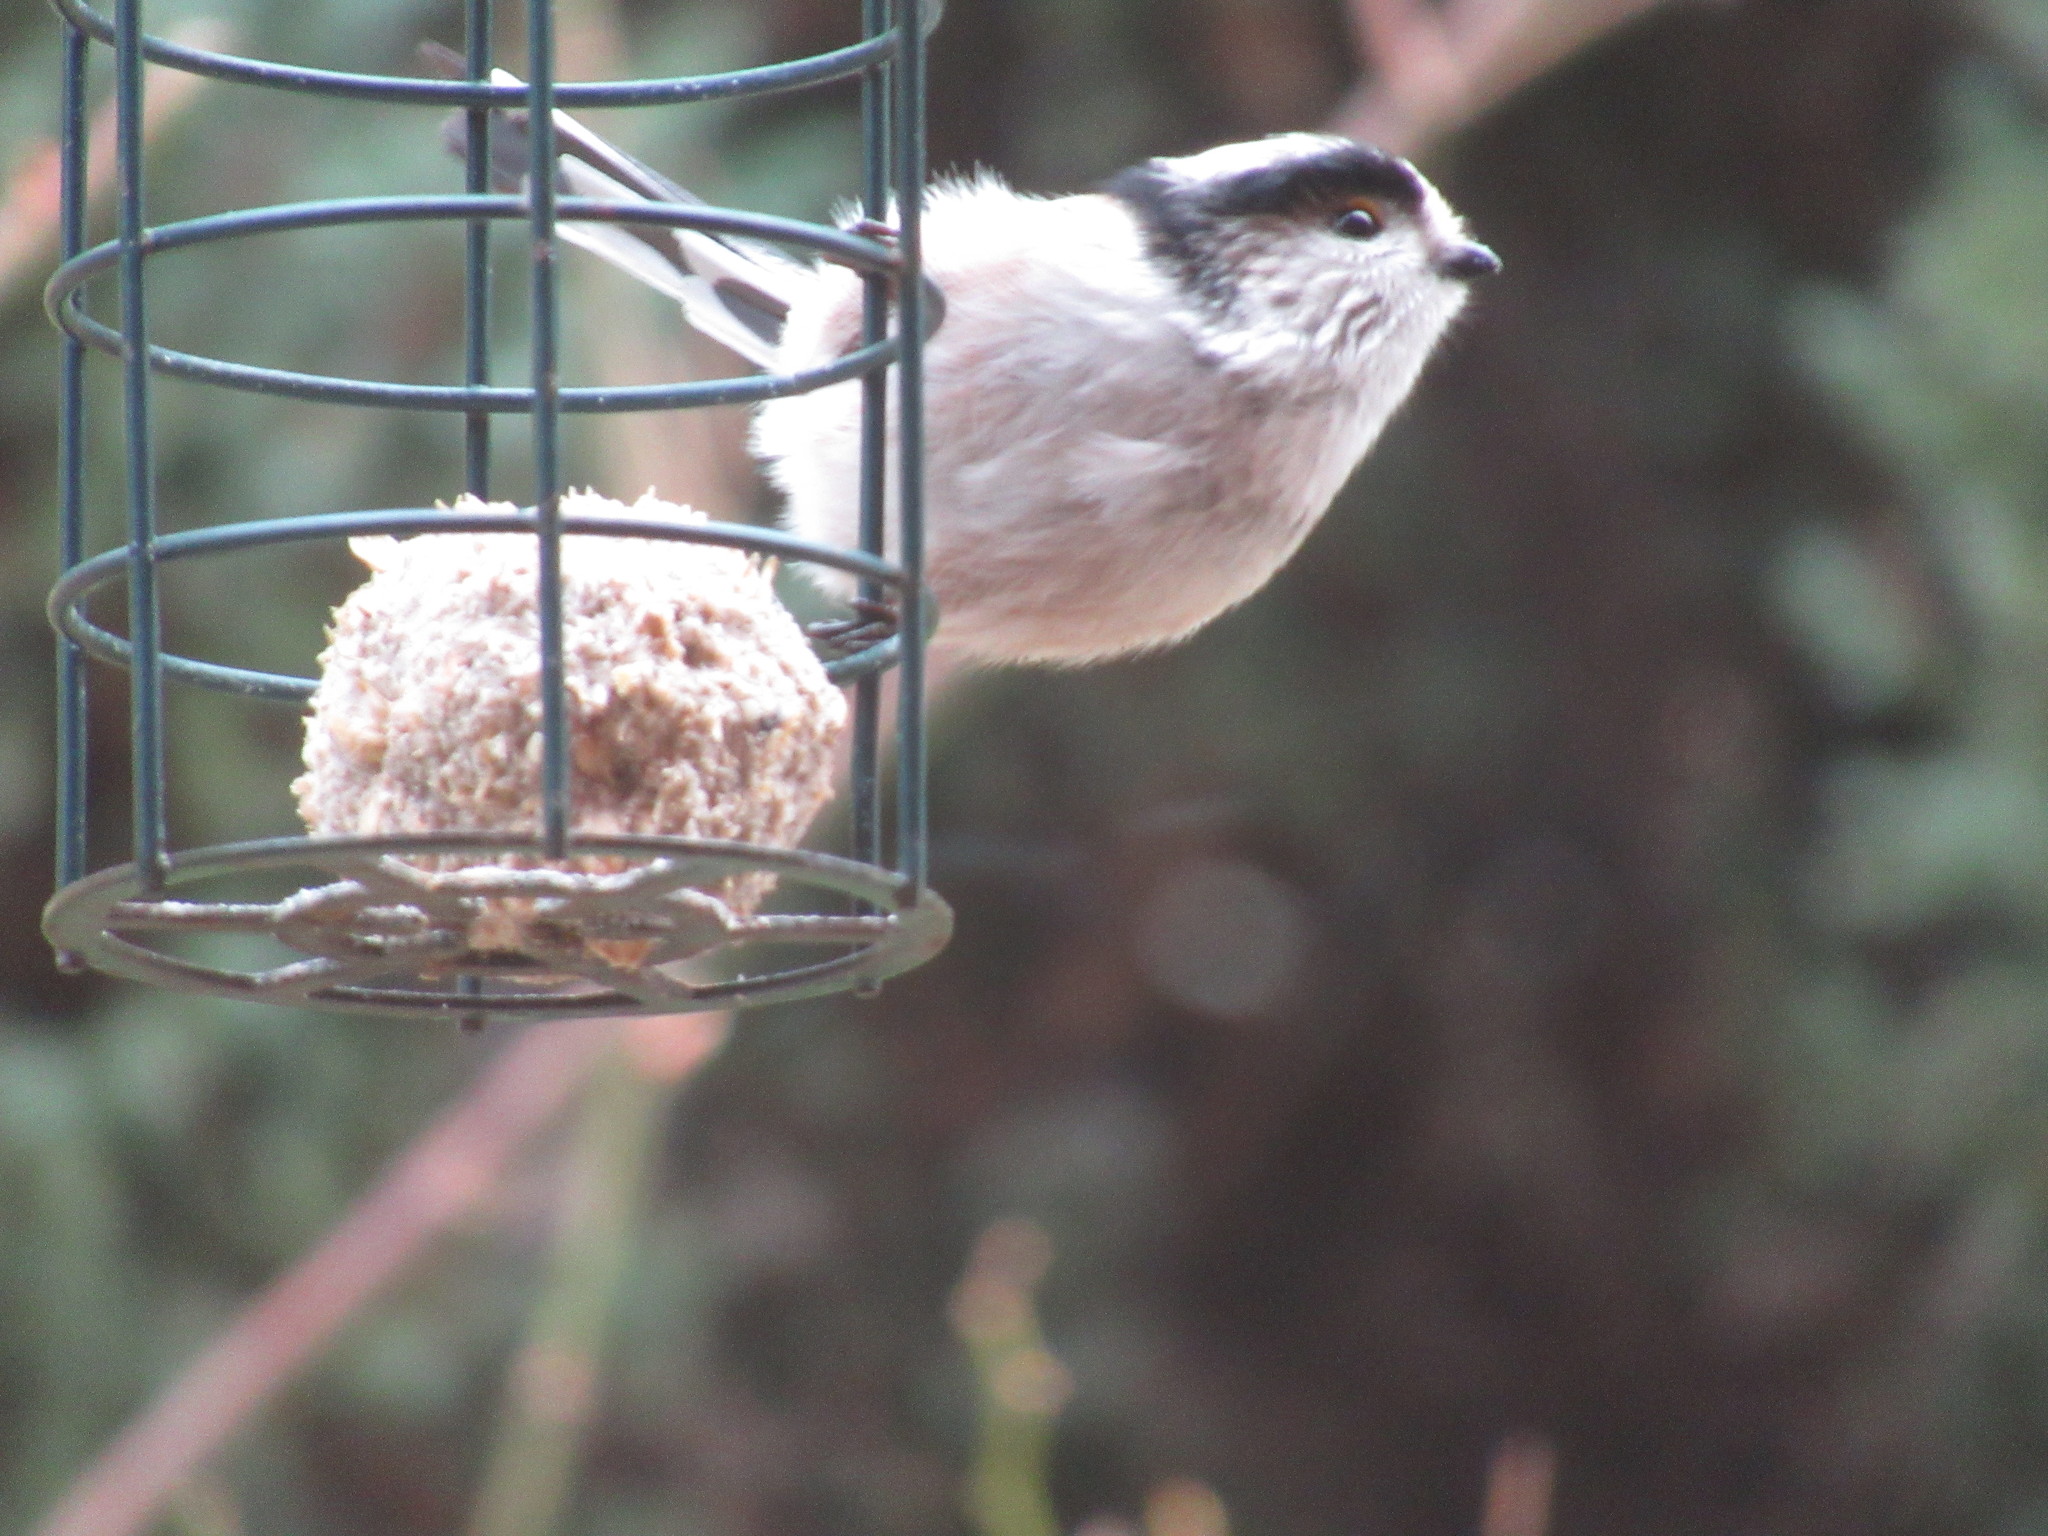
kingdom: Animalia
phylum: Chordata
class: Aves
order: Passeriformes
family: Aegithalidae
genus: Aegithalos
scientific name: Aegithalos caudatus
